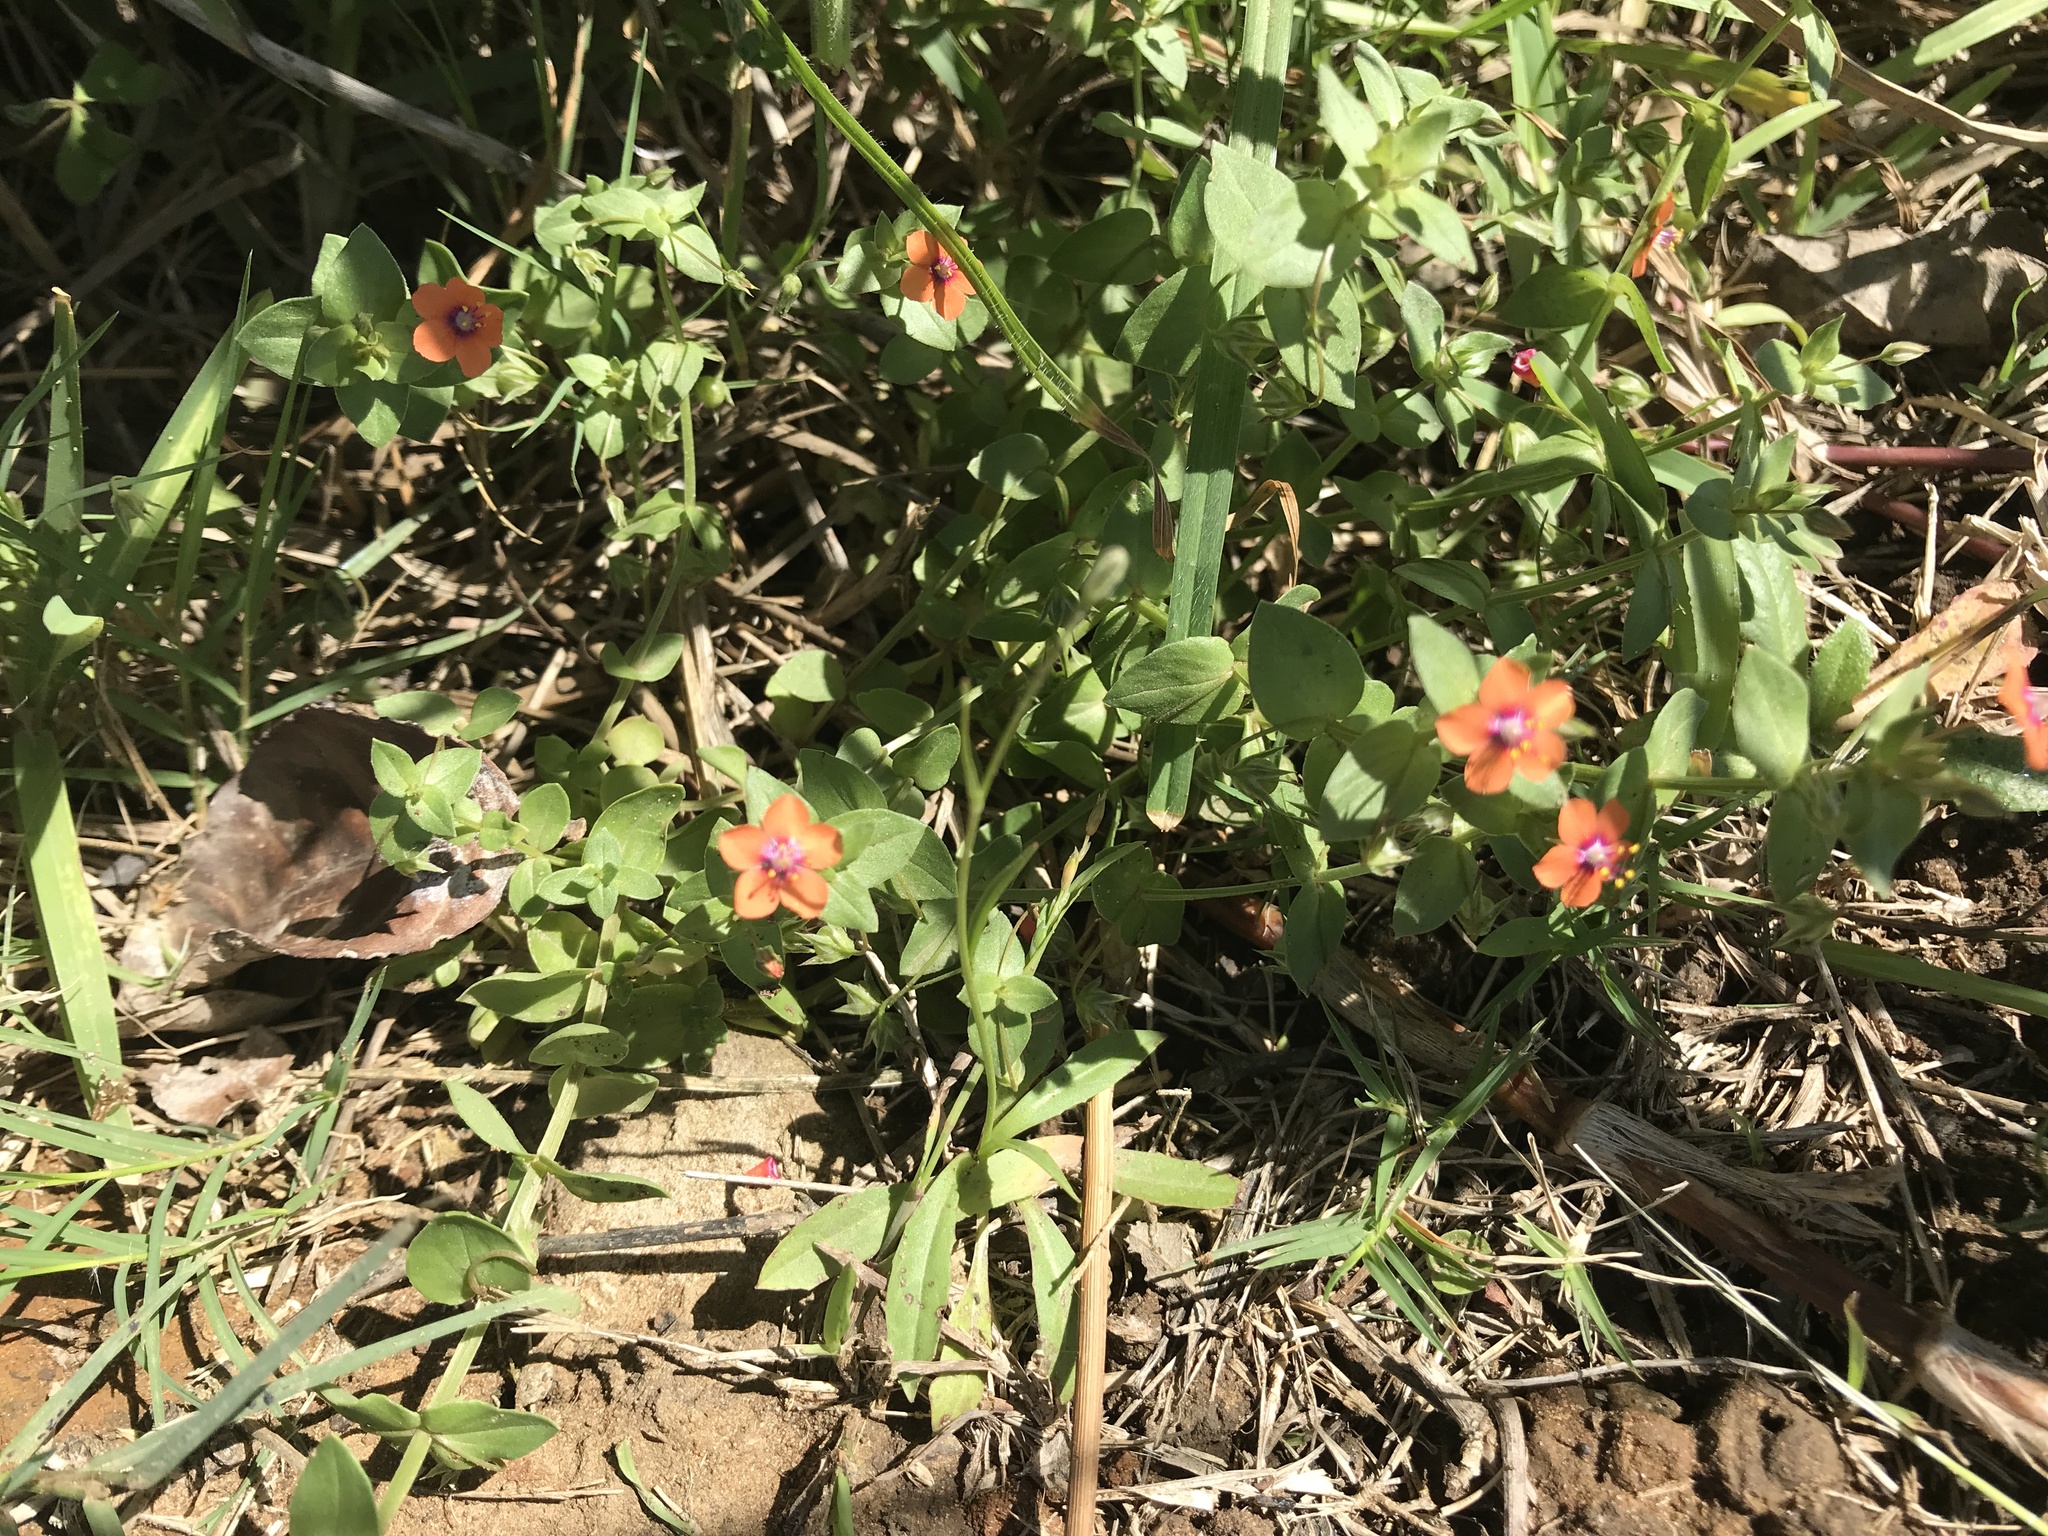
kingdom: Plantae
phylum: Tracheophyta
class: Magnoliopsida
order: Ericales
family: Primulaceae
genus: Lysimachia
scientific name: Lysimachia arvensis
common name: Scarlet pimpernel
